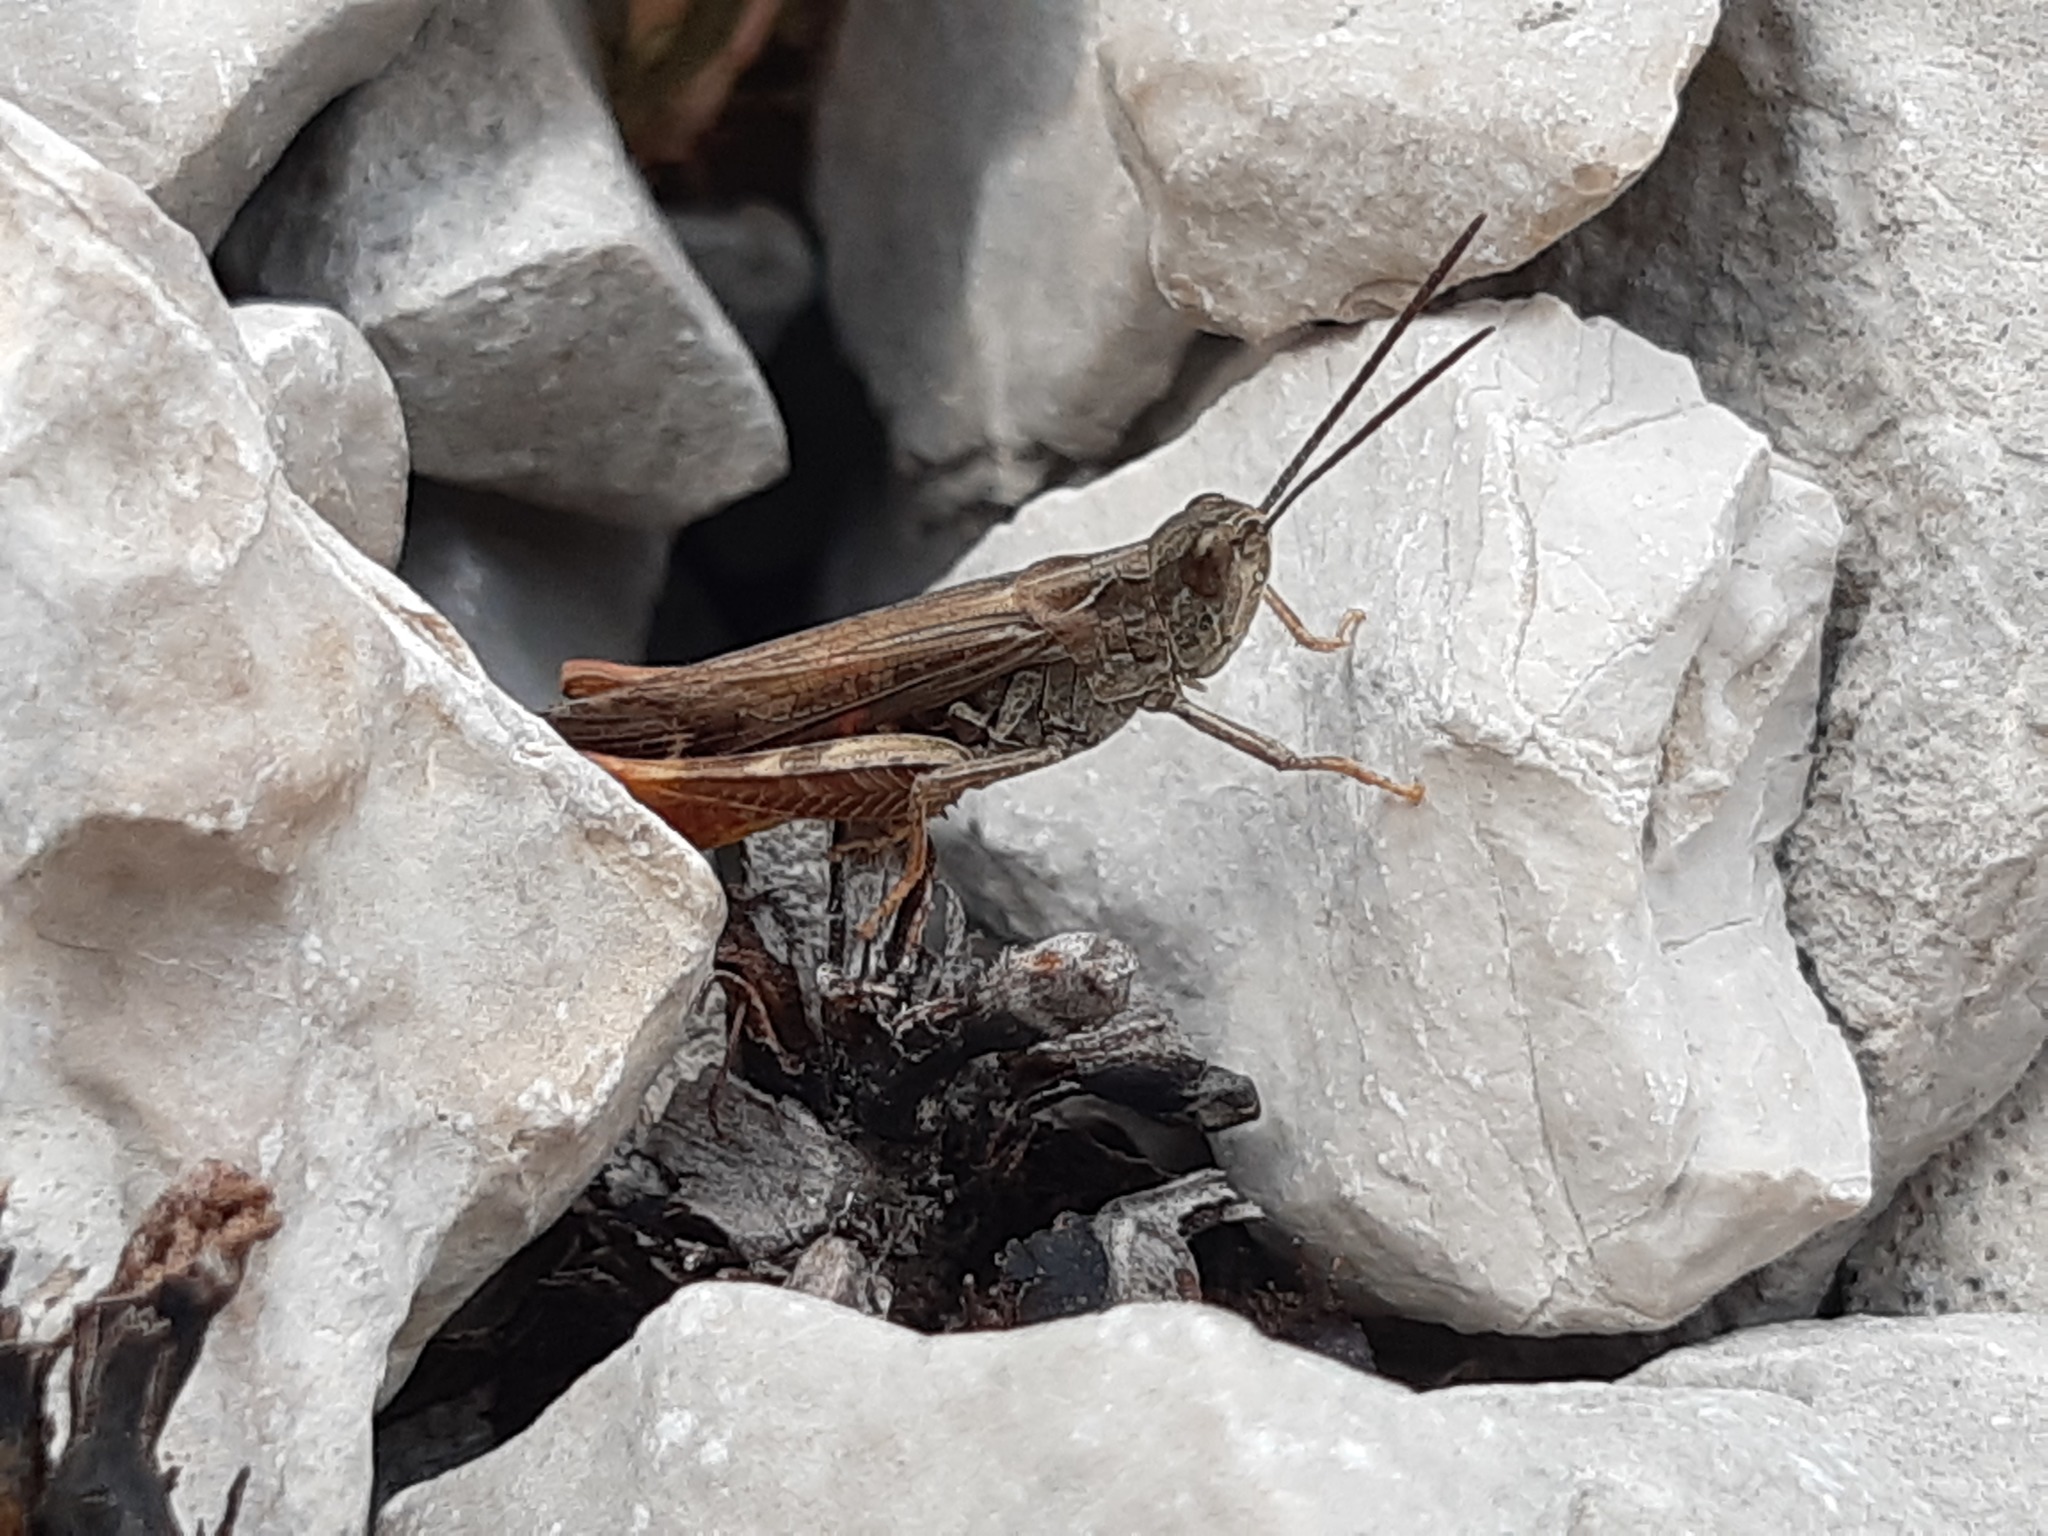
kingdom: Animalia
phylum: Arthropoda
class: Insecta
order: Orthoptera
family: Acrididae
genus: Chorthippus
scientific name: Chorthippus maritimus
